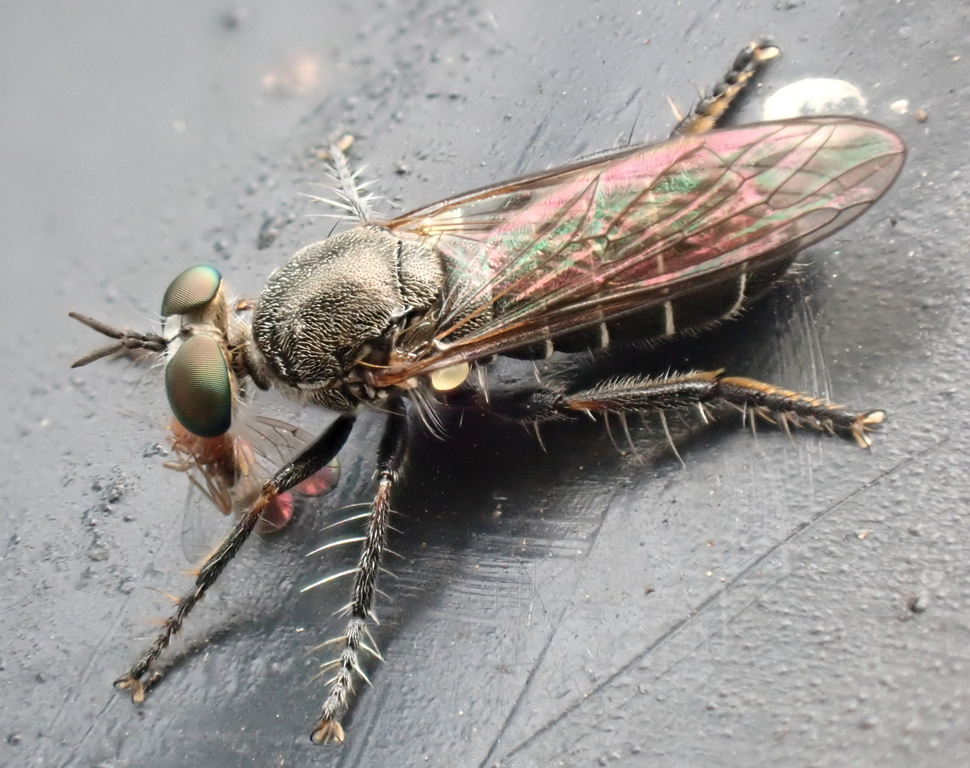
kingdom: Animalia
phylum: Arthropoda
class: Insecta
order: Diptera
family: Asilidae
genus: Atomosia
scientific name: Atomosia puella
